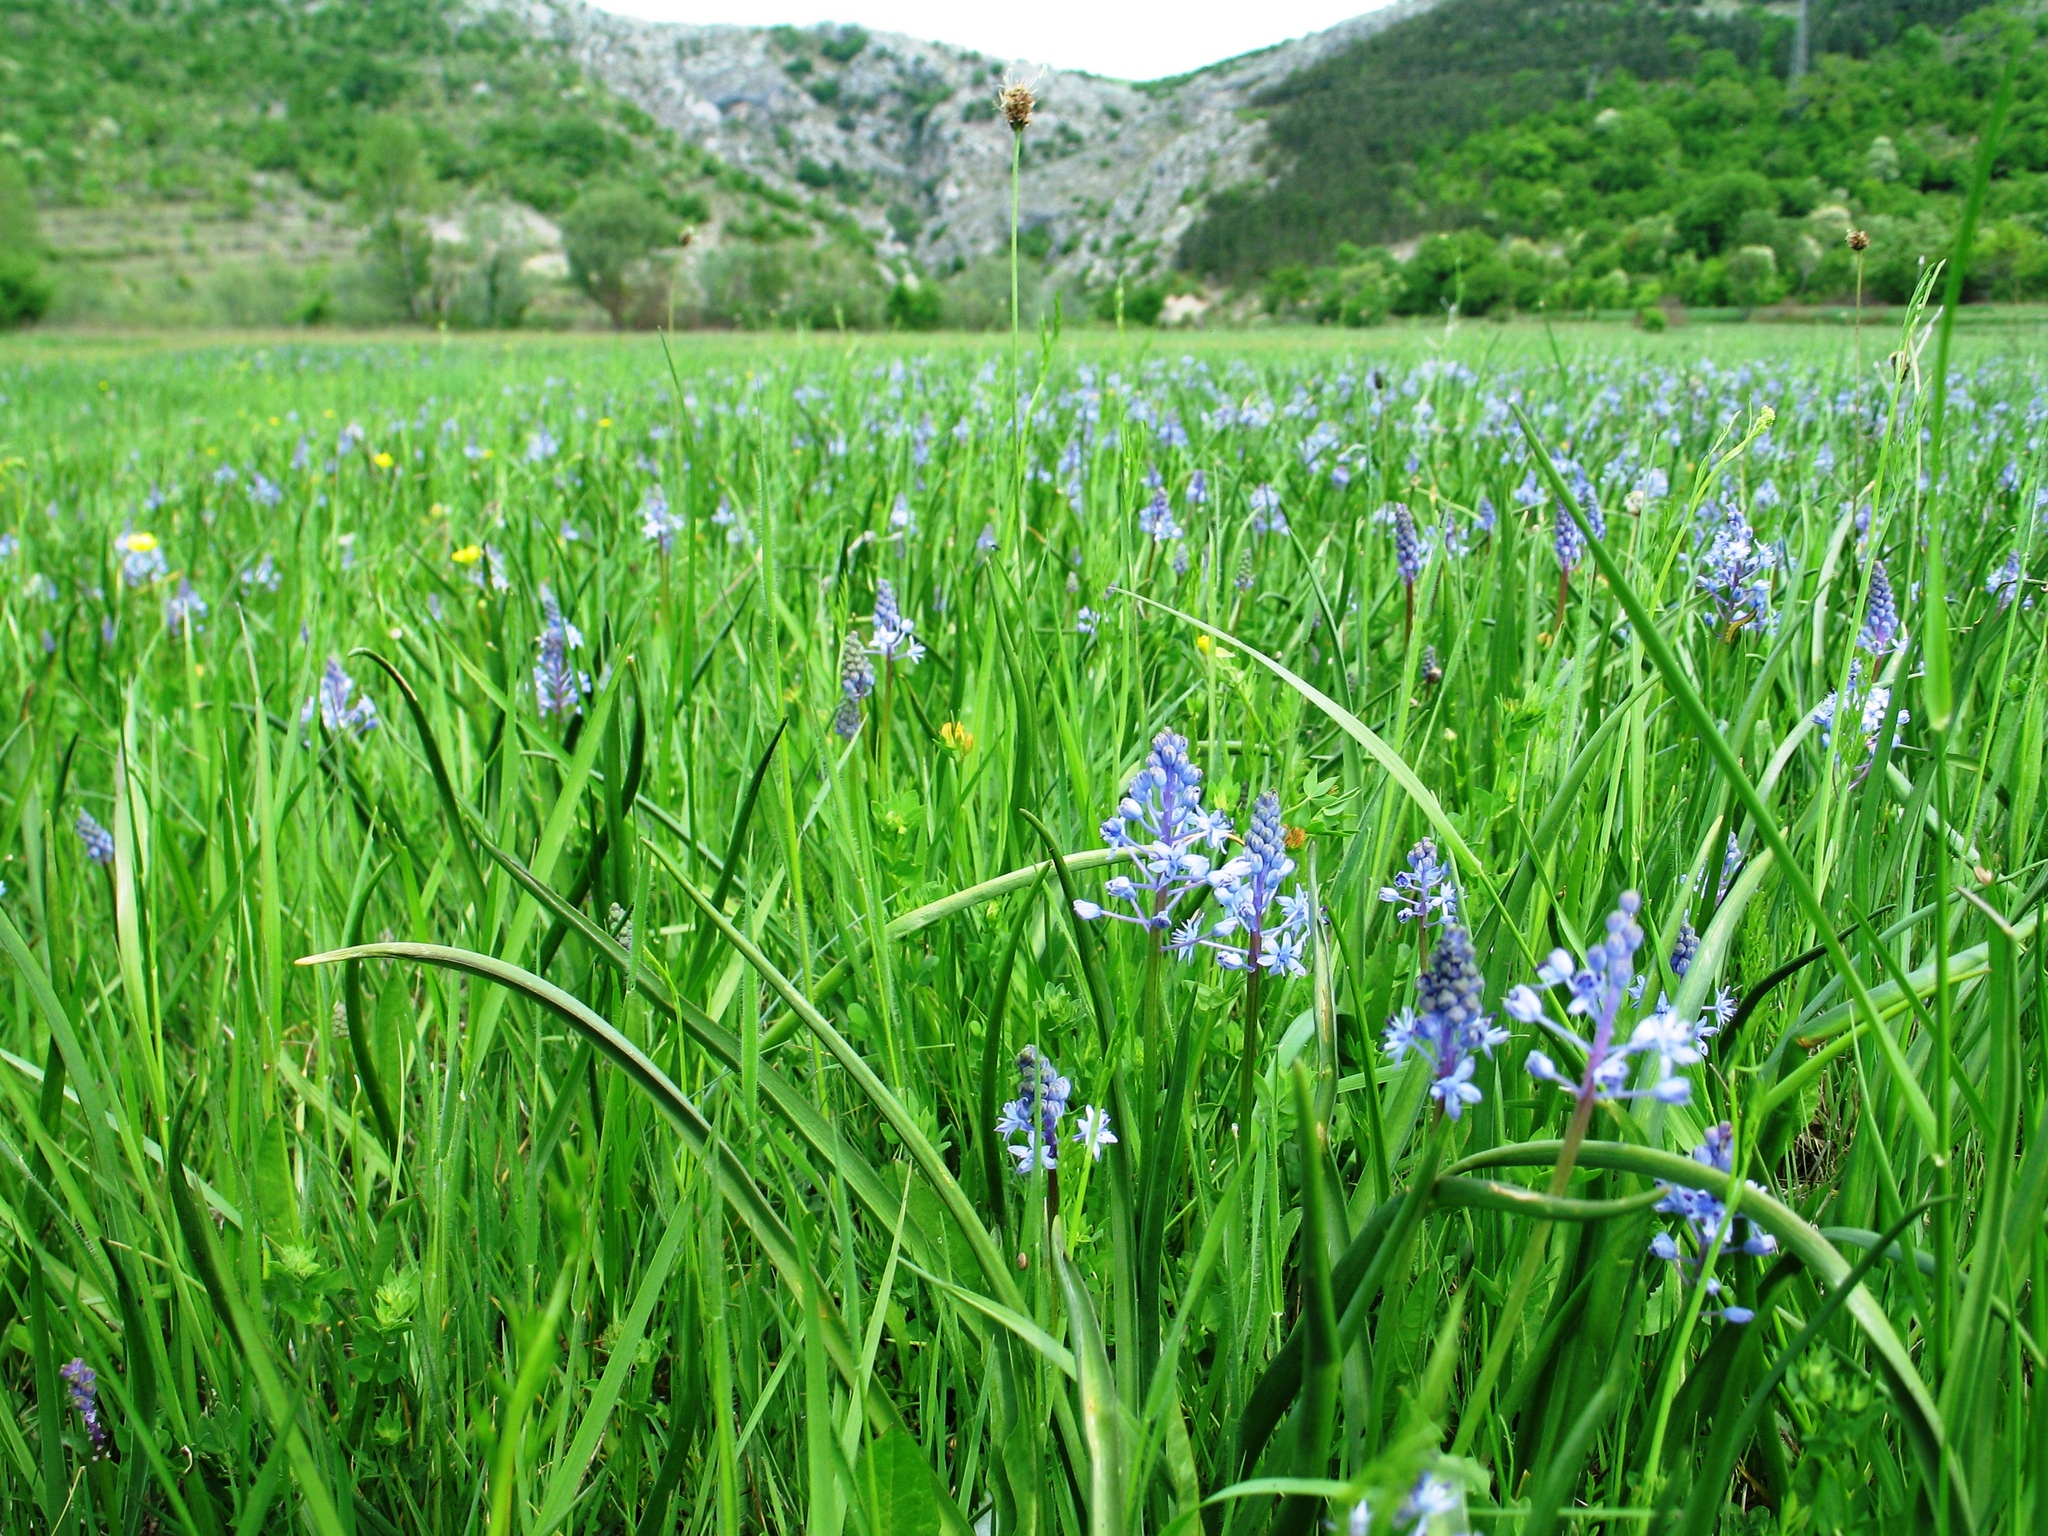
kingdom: Plantae
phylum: Tracheophyta
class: Liliopsida
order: Asparagales
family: Asparagaceae
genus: Scilla
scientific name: Scilla litardierei
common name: Amethyst meadow squill
